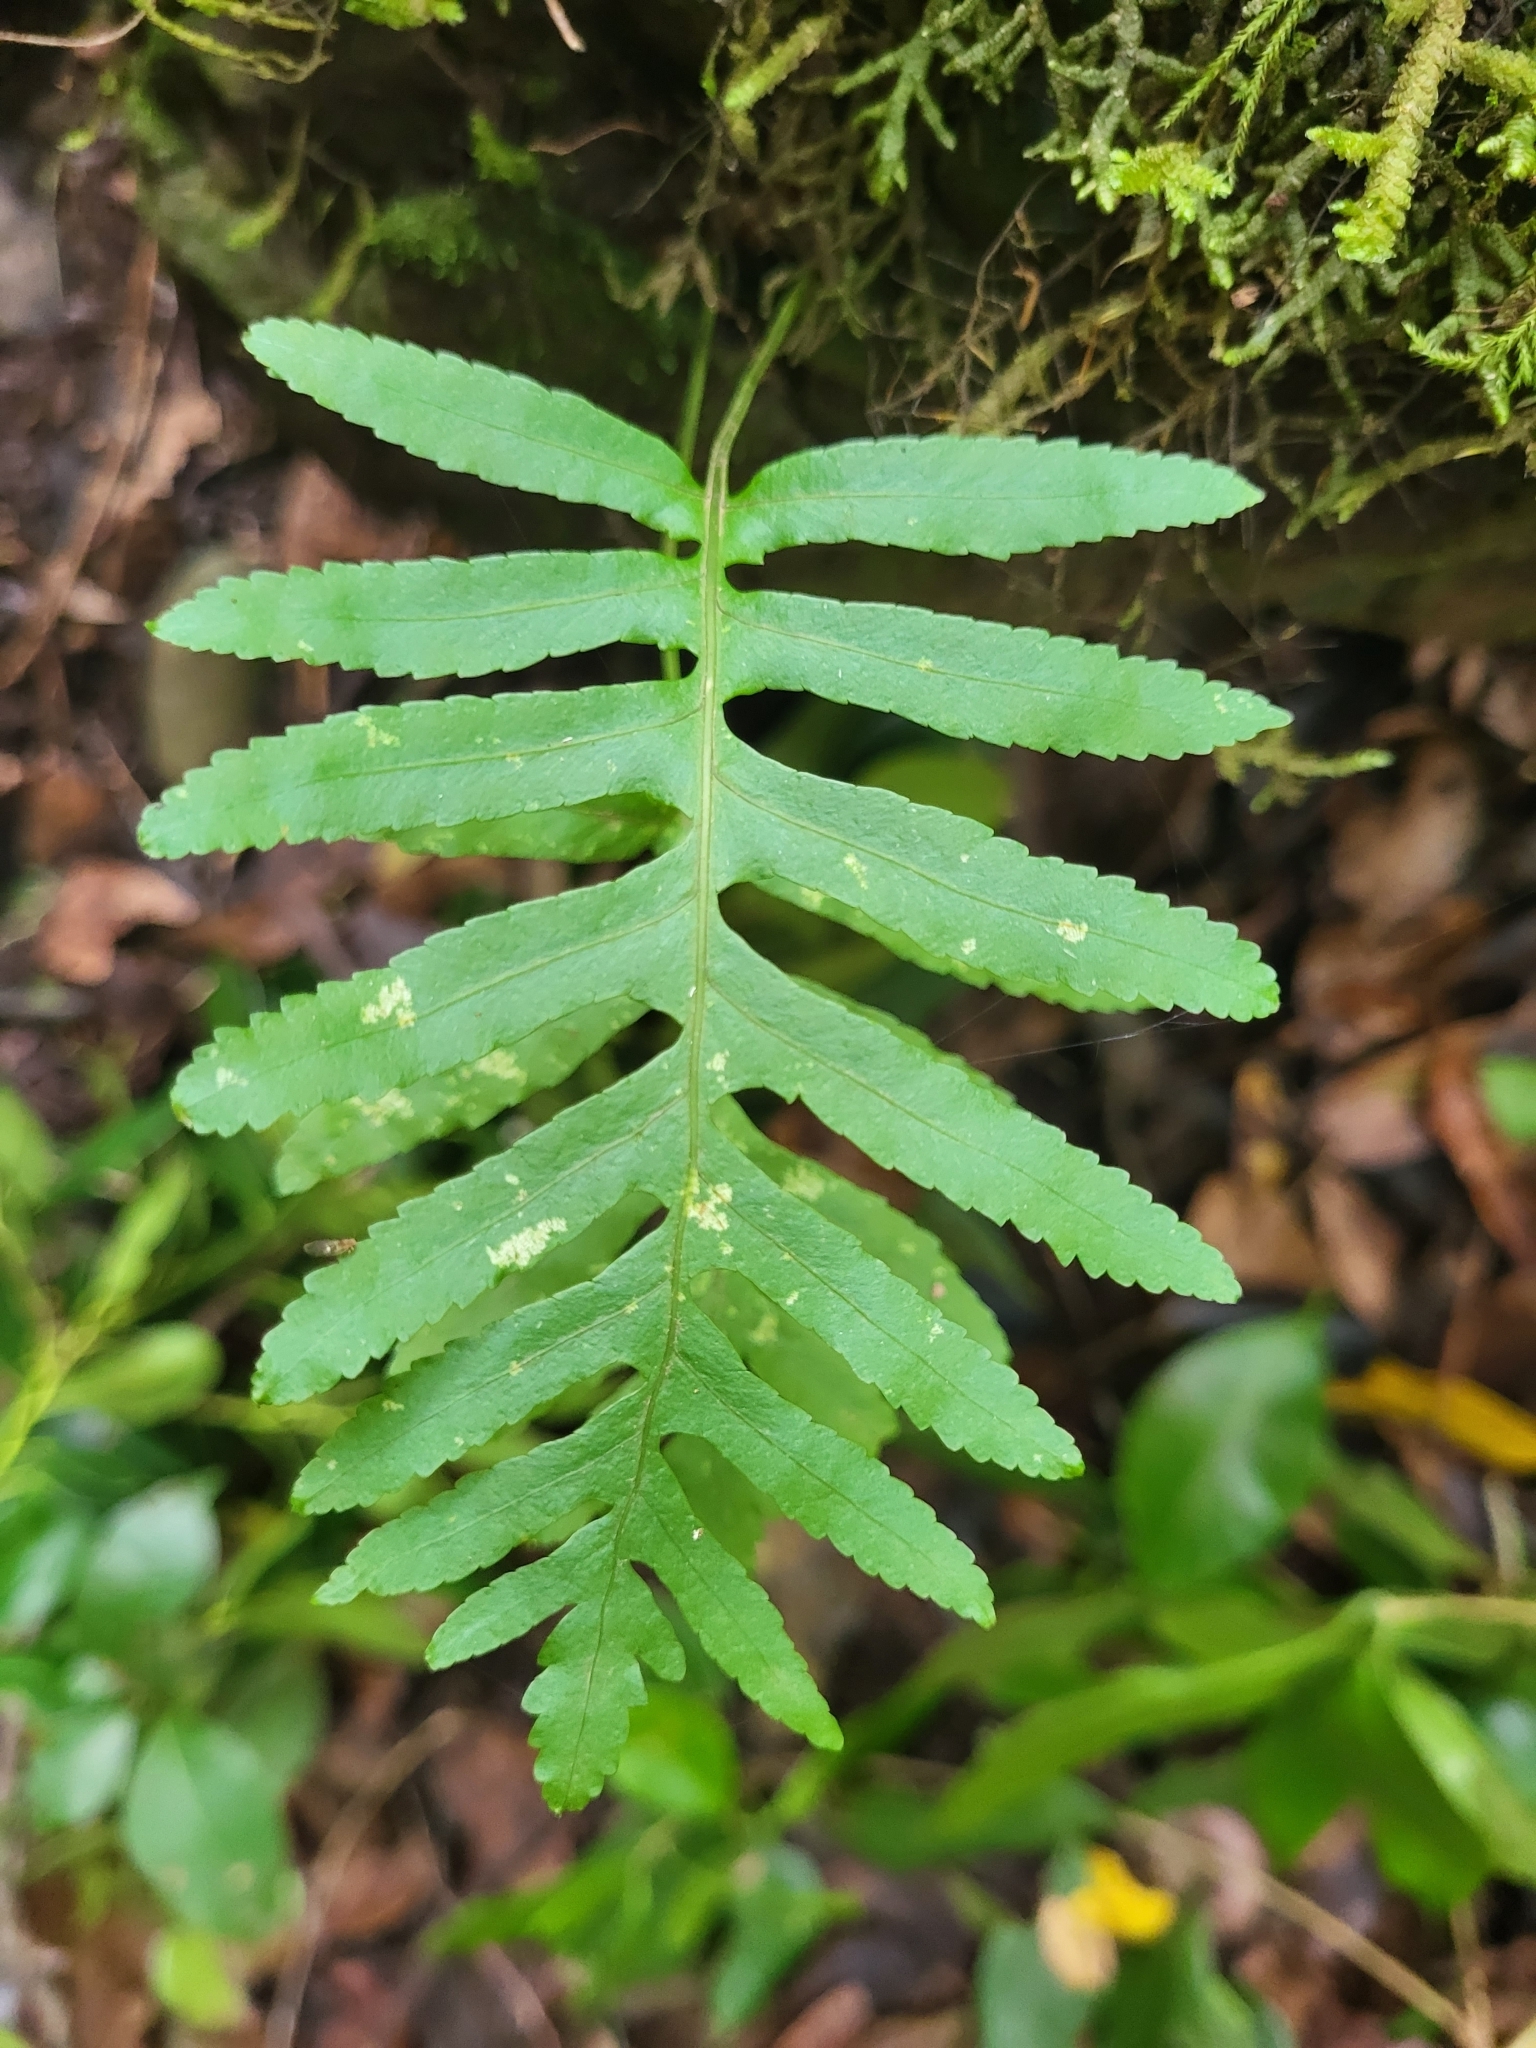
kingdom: Plantae
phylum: Tracheophyta
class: Polypodiopsida
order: Polypodiales
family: Polypodiaceae
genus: Polypodium
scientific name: Polypodium macaronesicum
